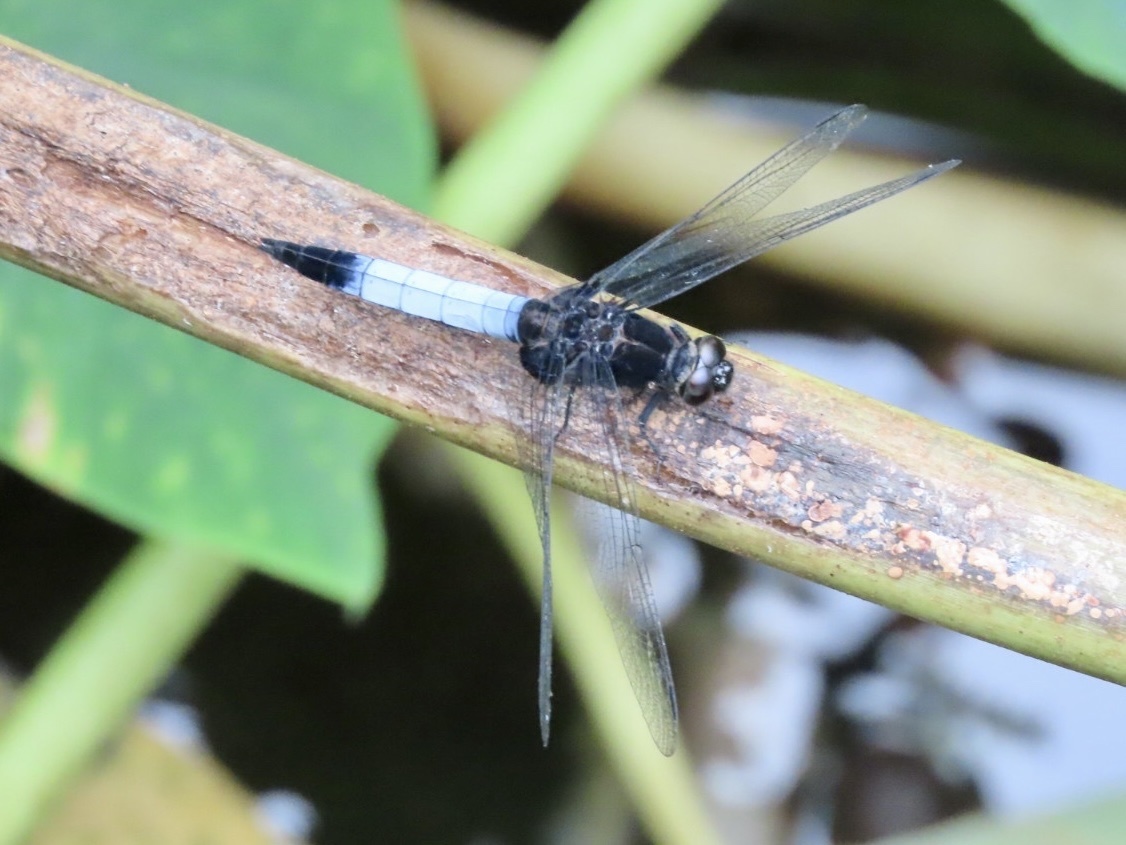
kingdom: Animalia
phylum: Arthropoda
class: Insecta
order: Odonata
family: Libellulidae
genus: Orthetrum
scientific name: Orthetrum triangulare
